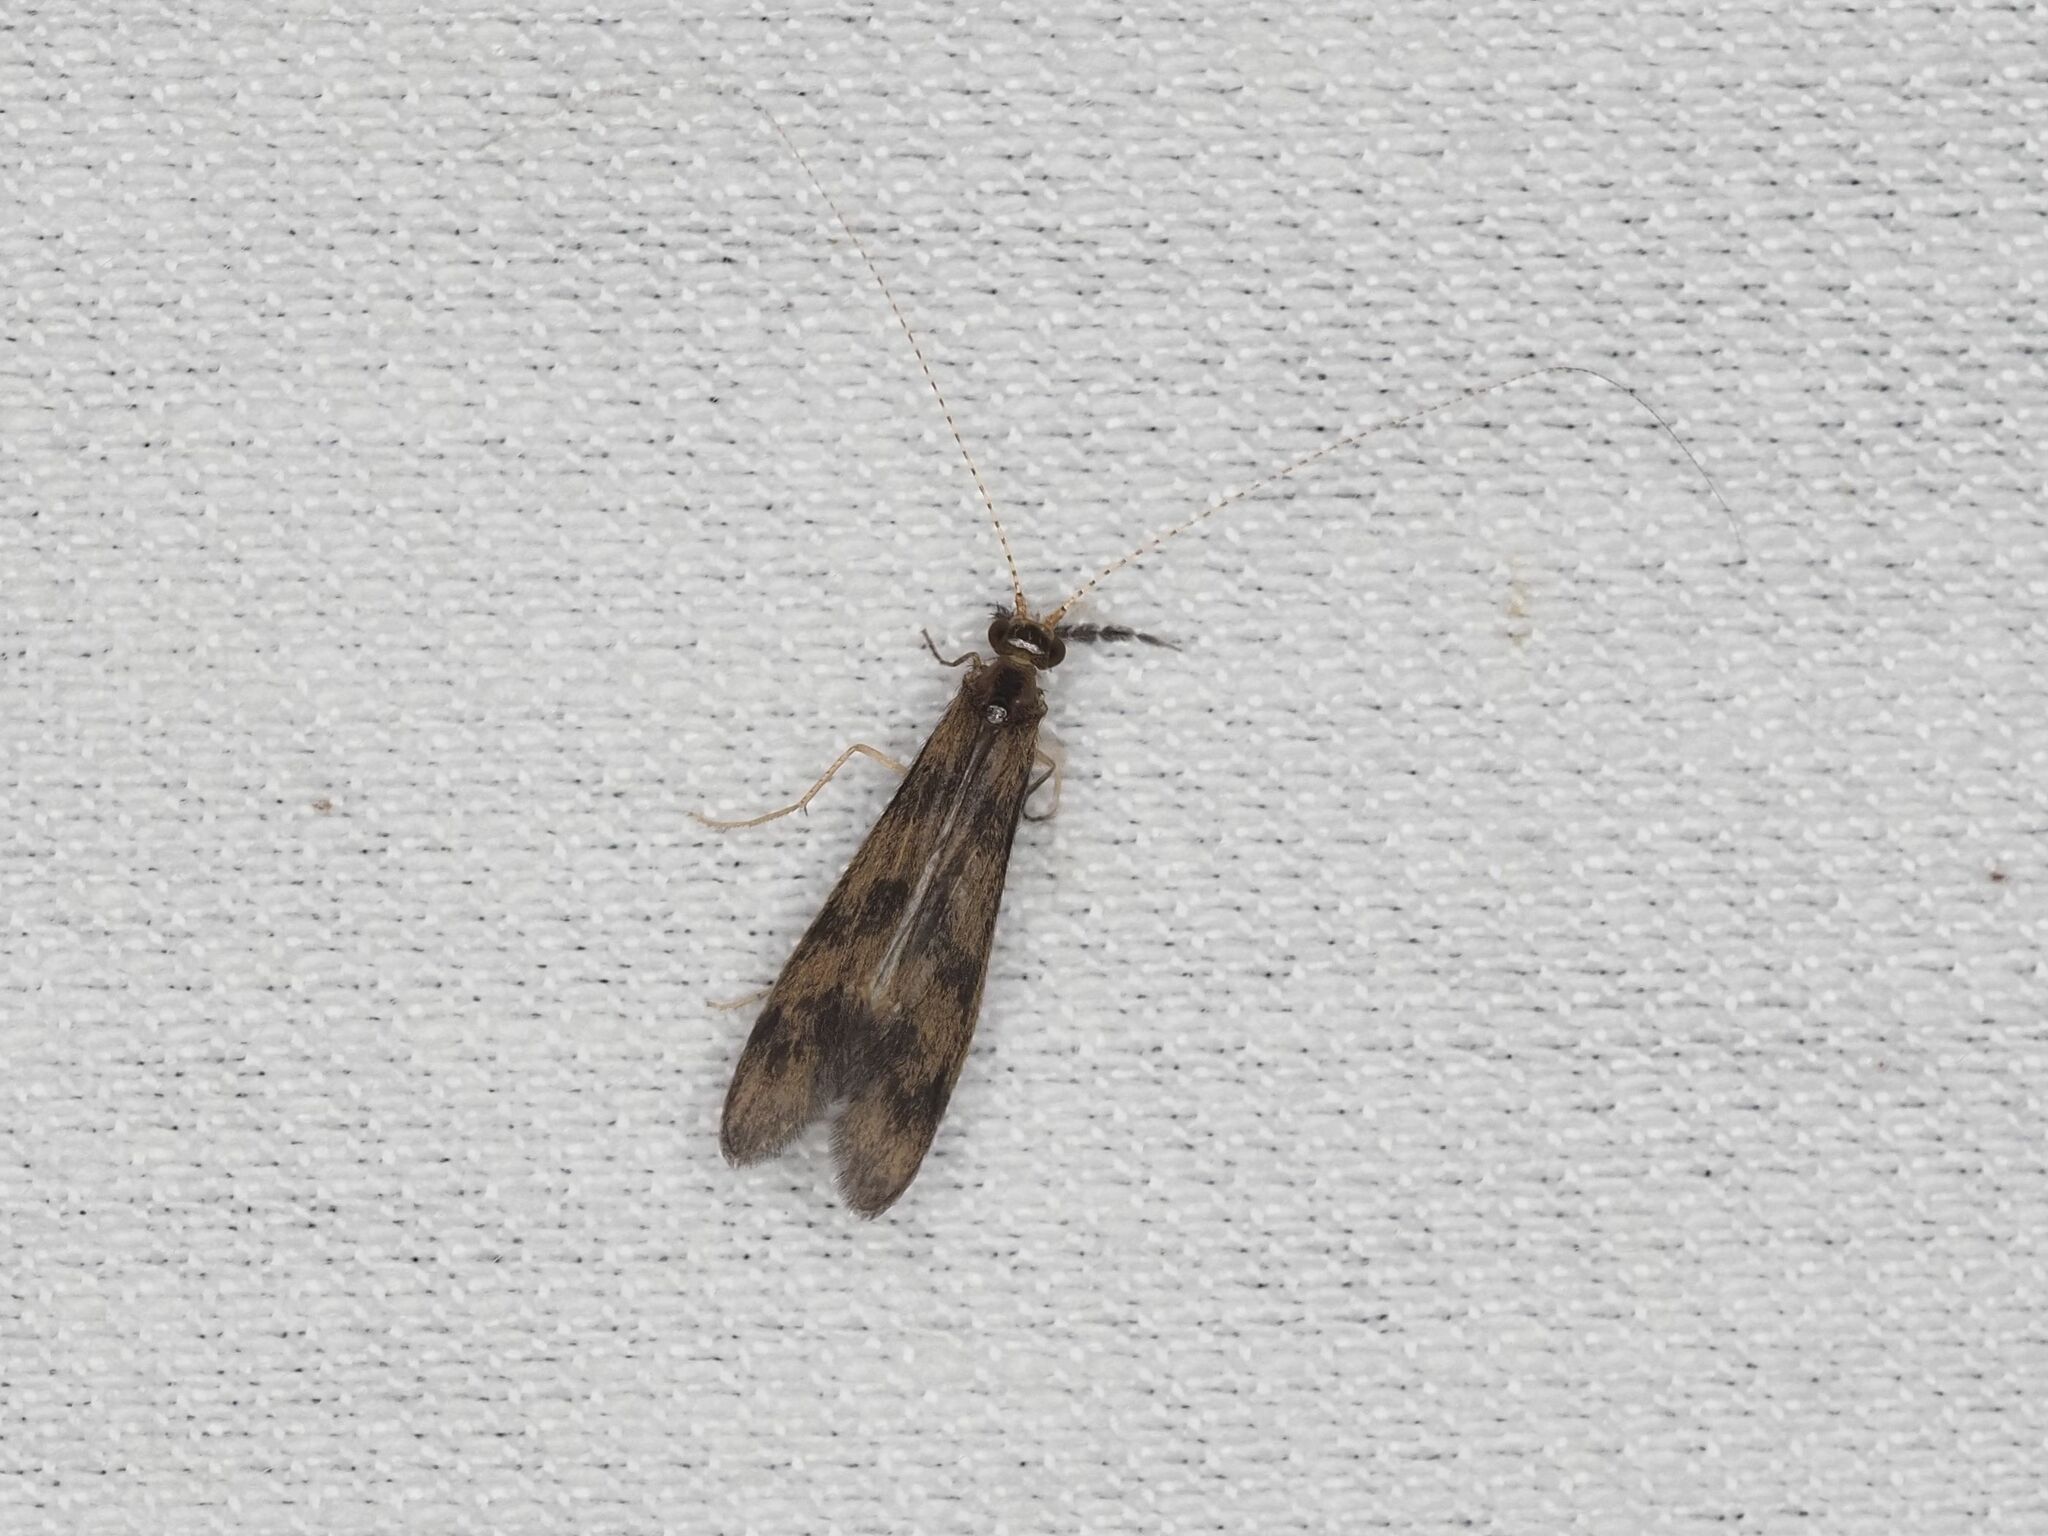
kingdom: Animalia
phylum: Arthropoda
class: Insecta
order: Trichoptera
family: Leptoceridae
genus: Mystacides
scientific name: Mystacides longicornis
